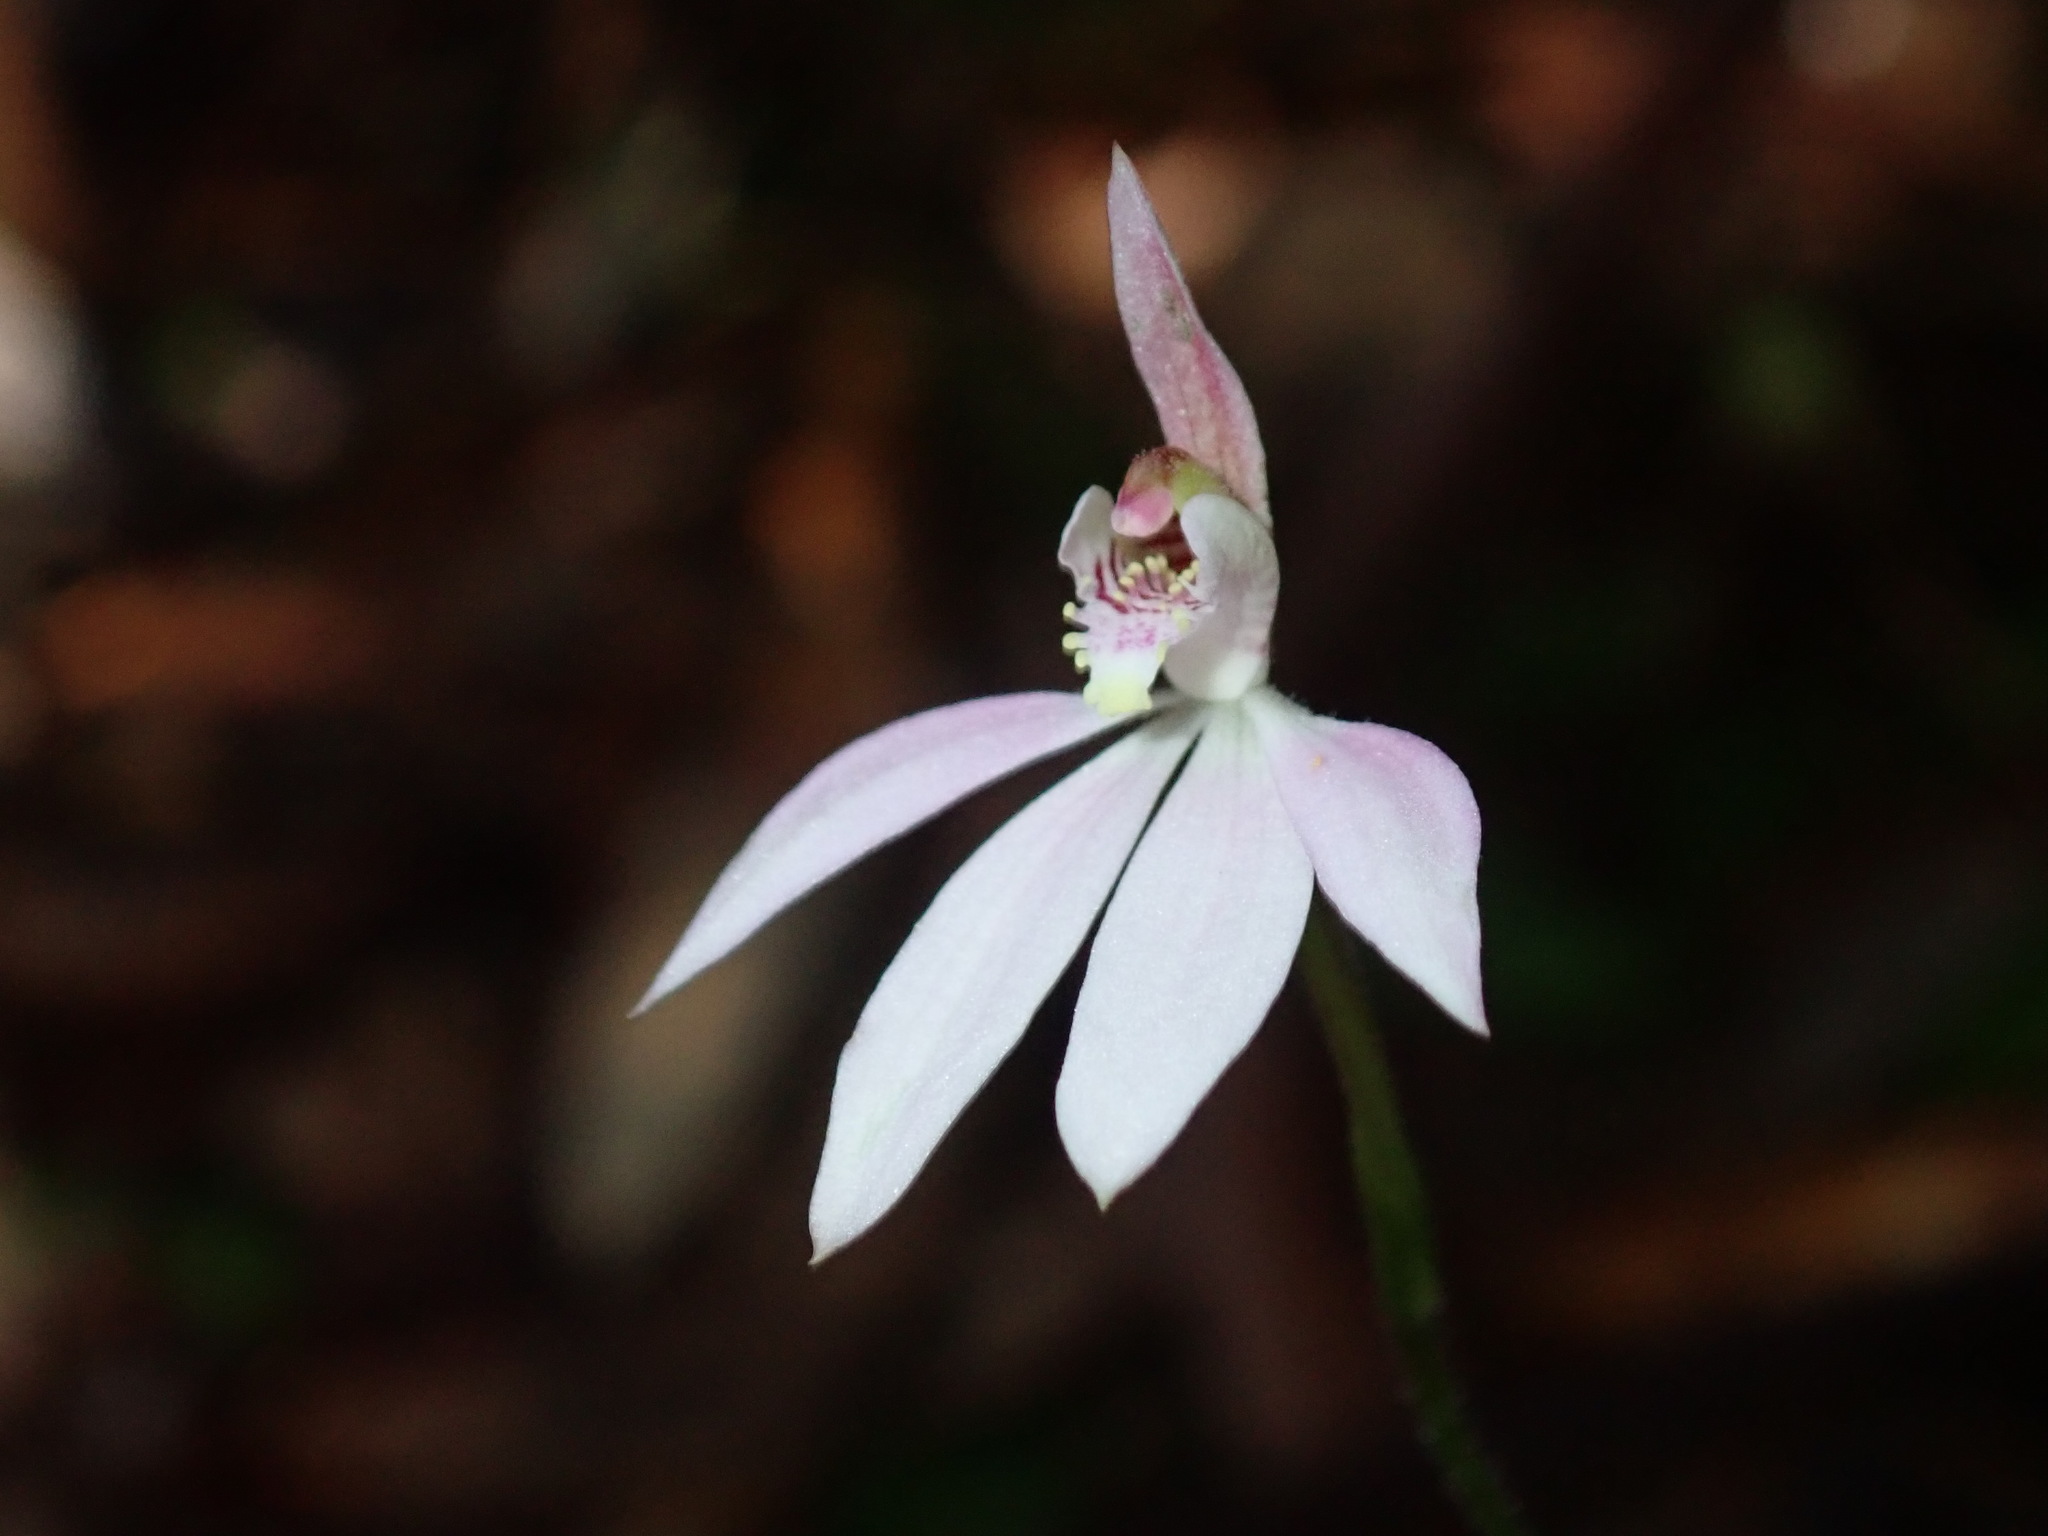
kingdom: Plantae
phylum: Tracheophyta
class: Liliopsida
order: Asparagales
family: Orchidaceae
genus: Caladenia
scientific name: Caladenia carnea
